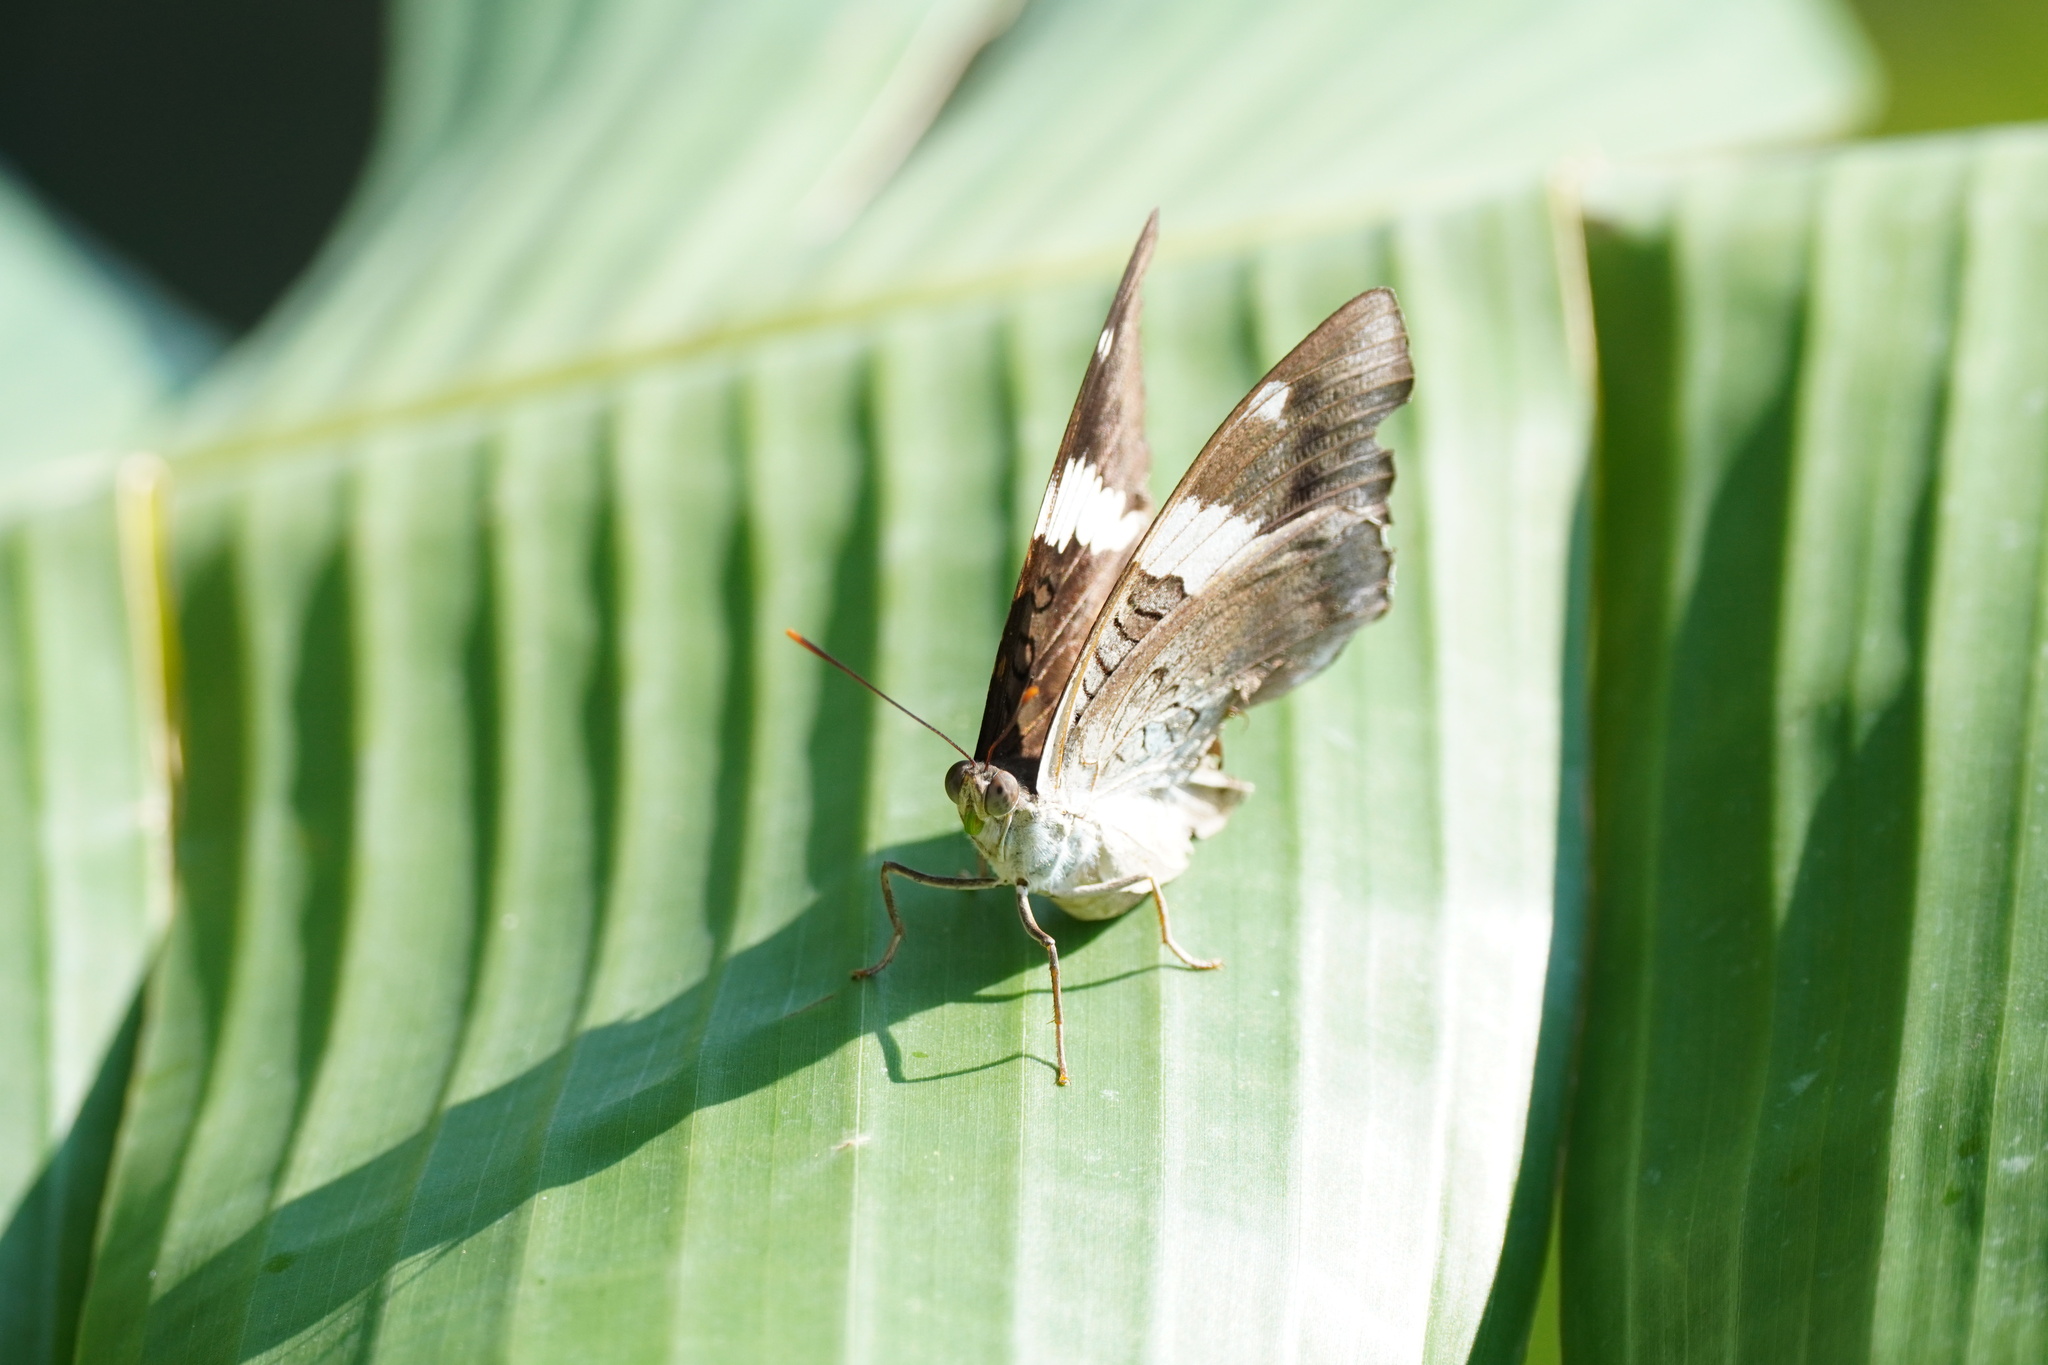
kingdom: Animalia
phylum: Arthropoda
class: Insecta
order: Lepidoptera
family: Nymphalidae
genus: Euthalia
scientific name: Euthalia phemius
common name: White-edged blue baron
